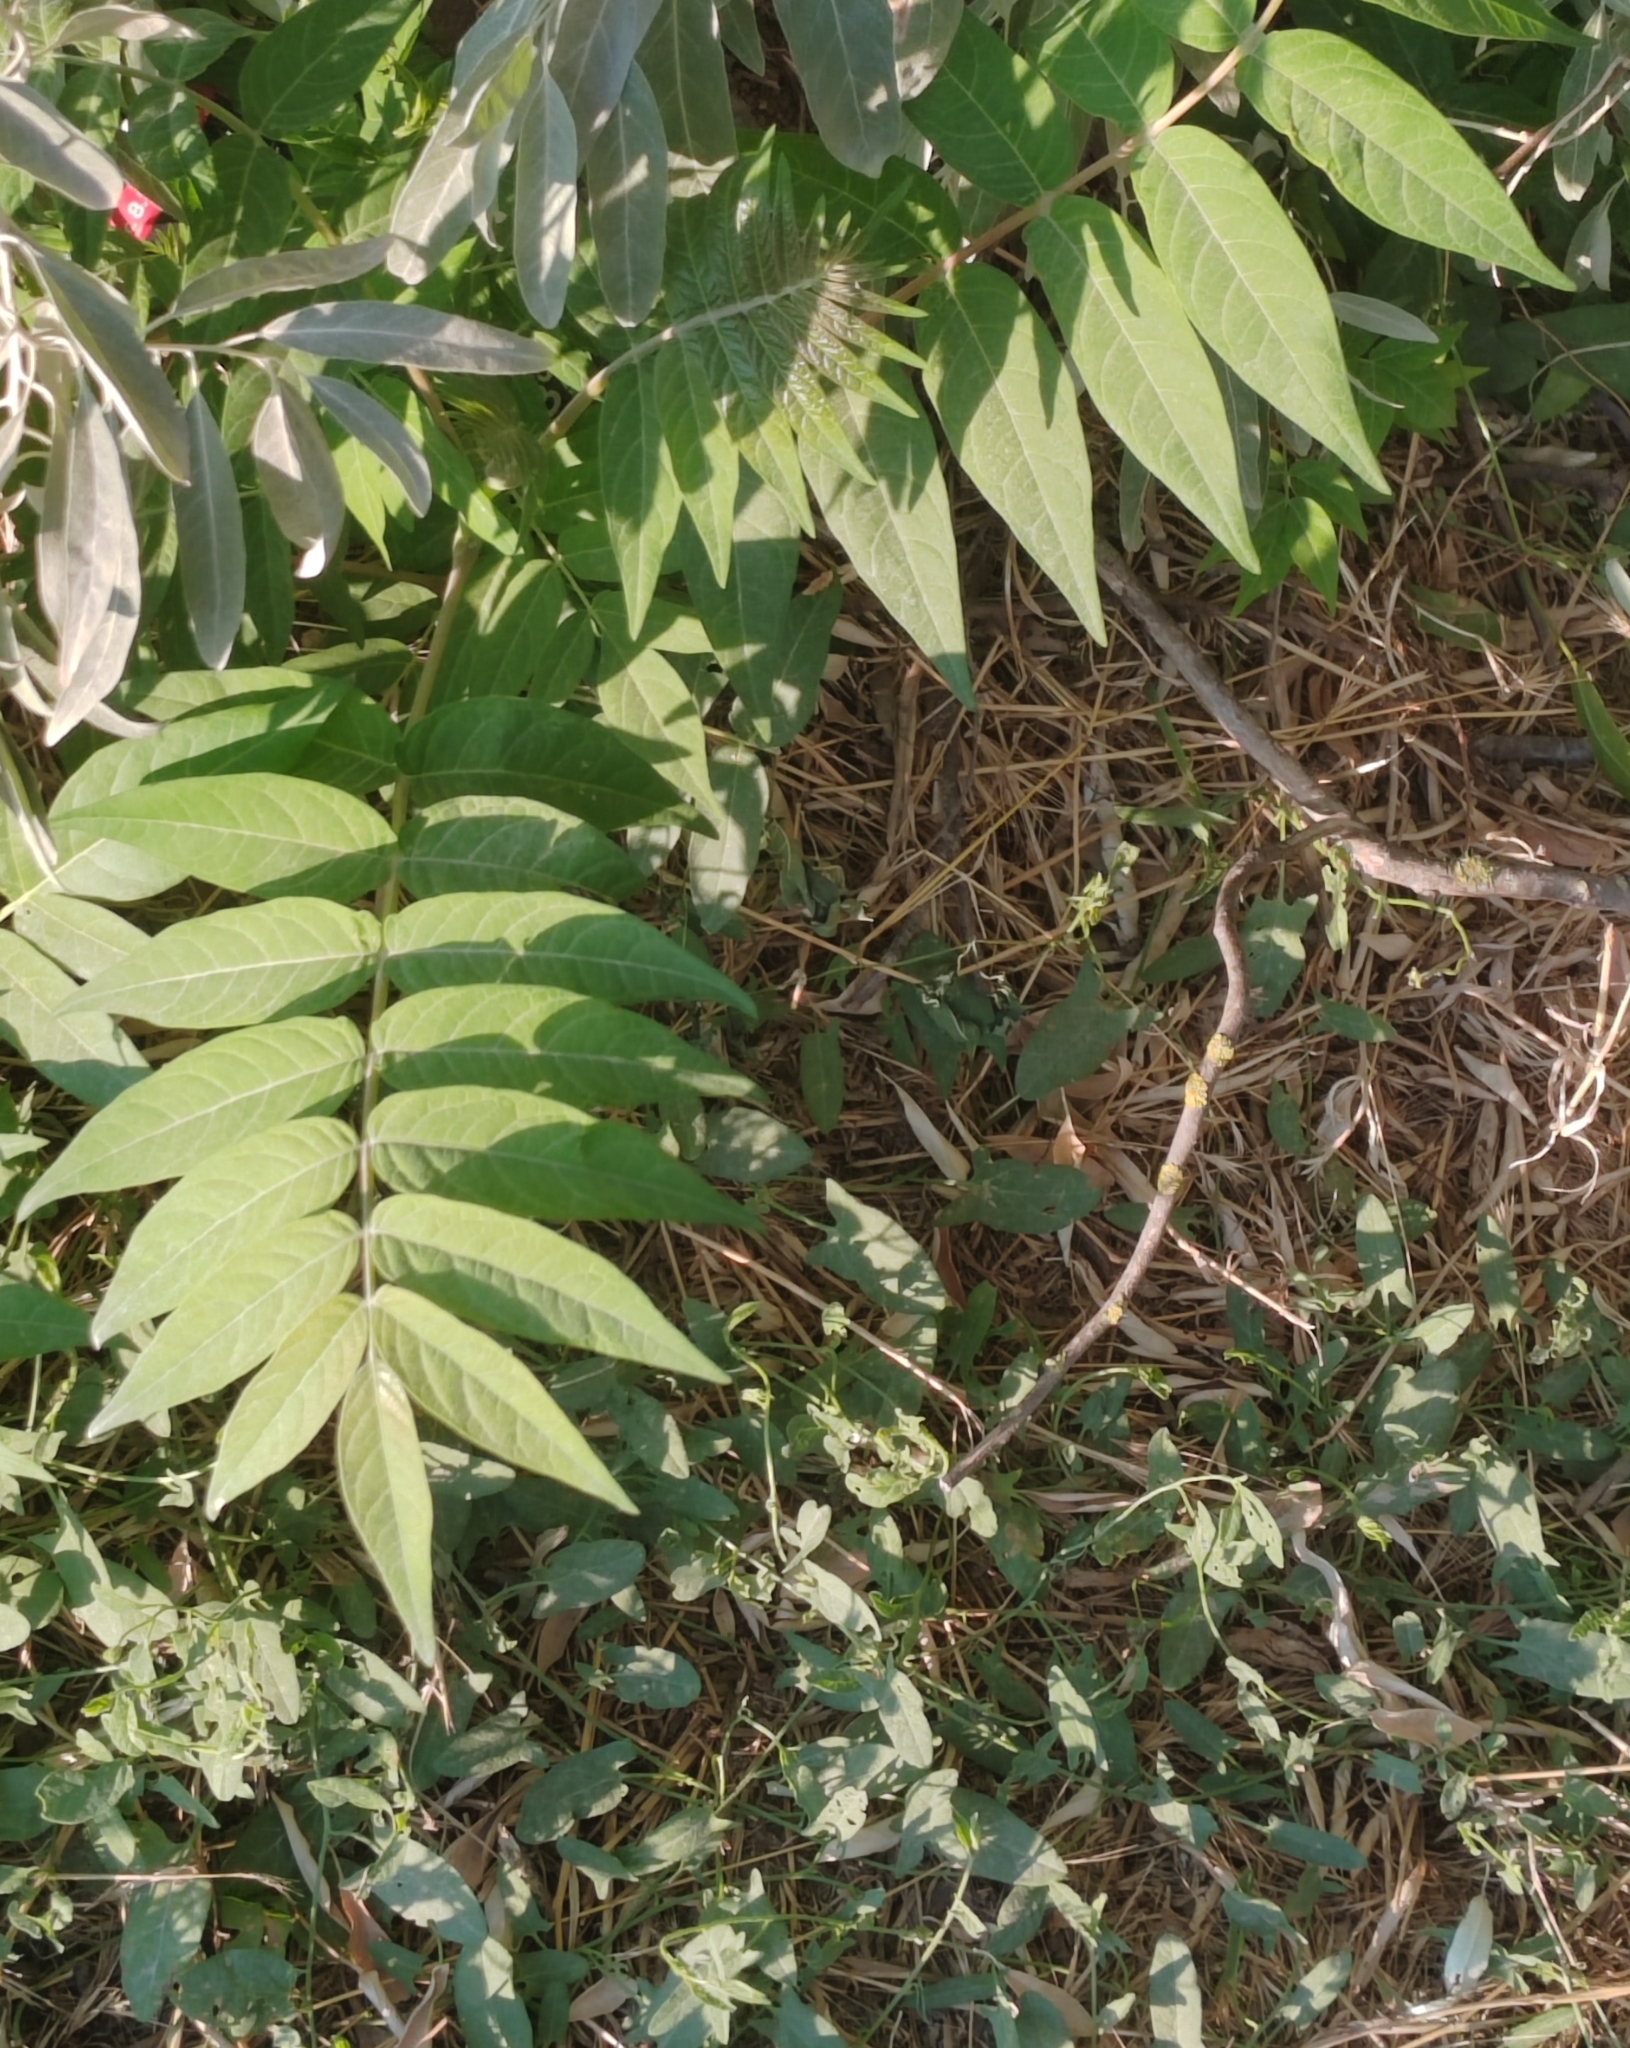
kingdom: Plantae
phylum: Tracheophyta
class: Magnoliopsida
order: Sapindales
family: Simaroubaceae
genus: Ailanthus
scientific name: Ailanthus altissima
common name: Tree-of-heaven
